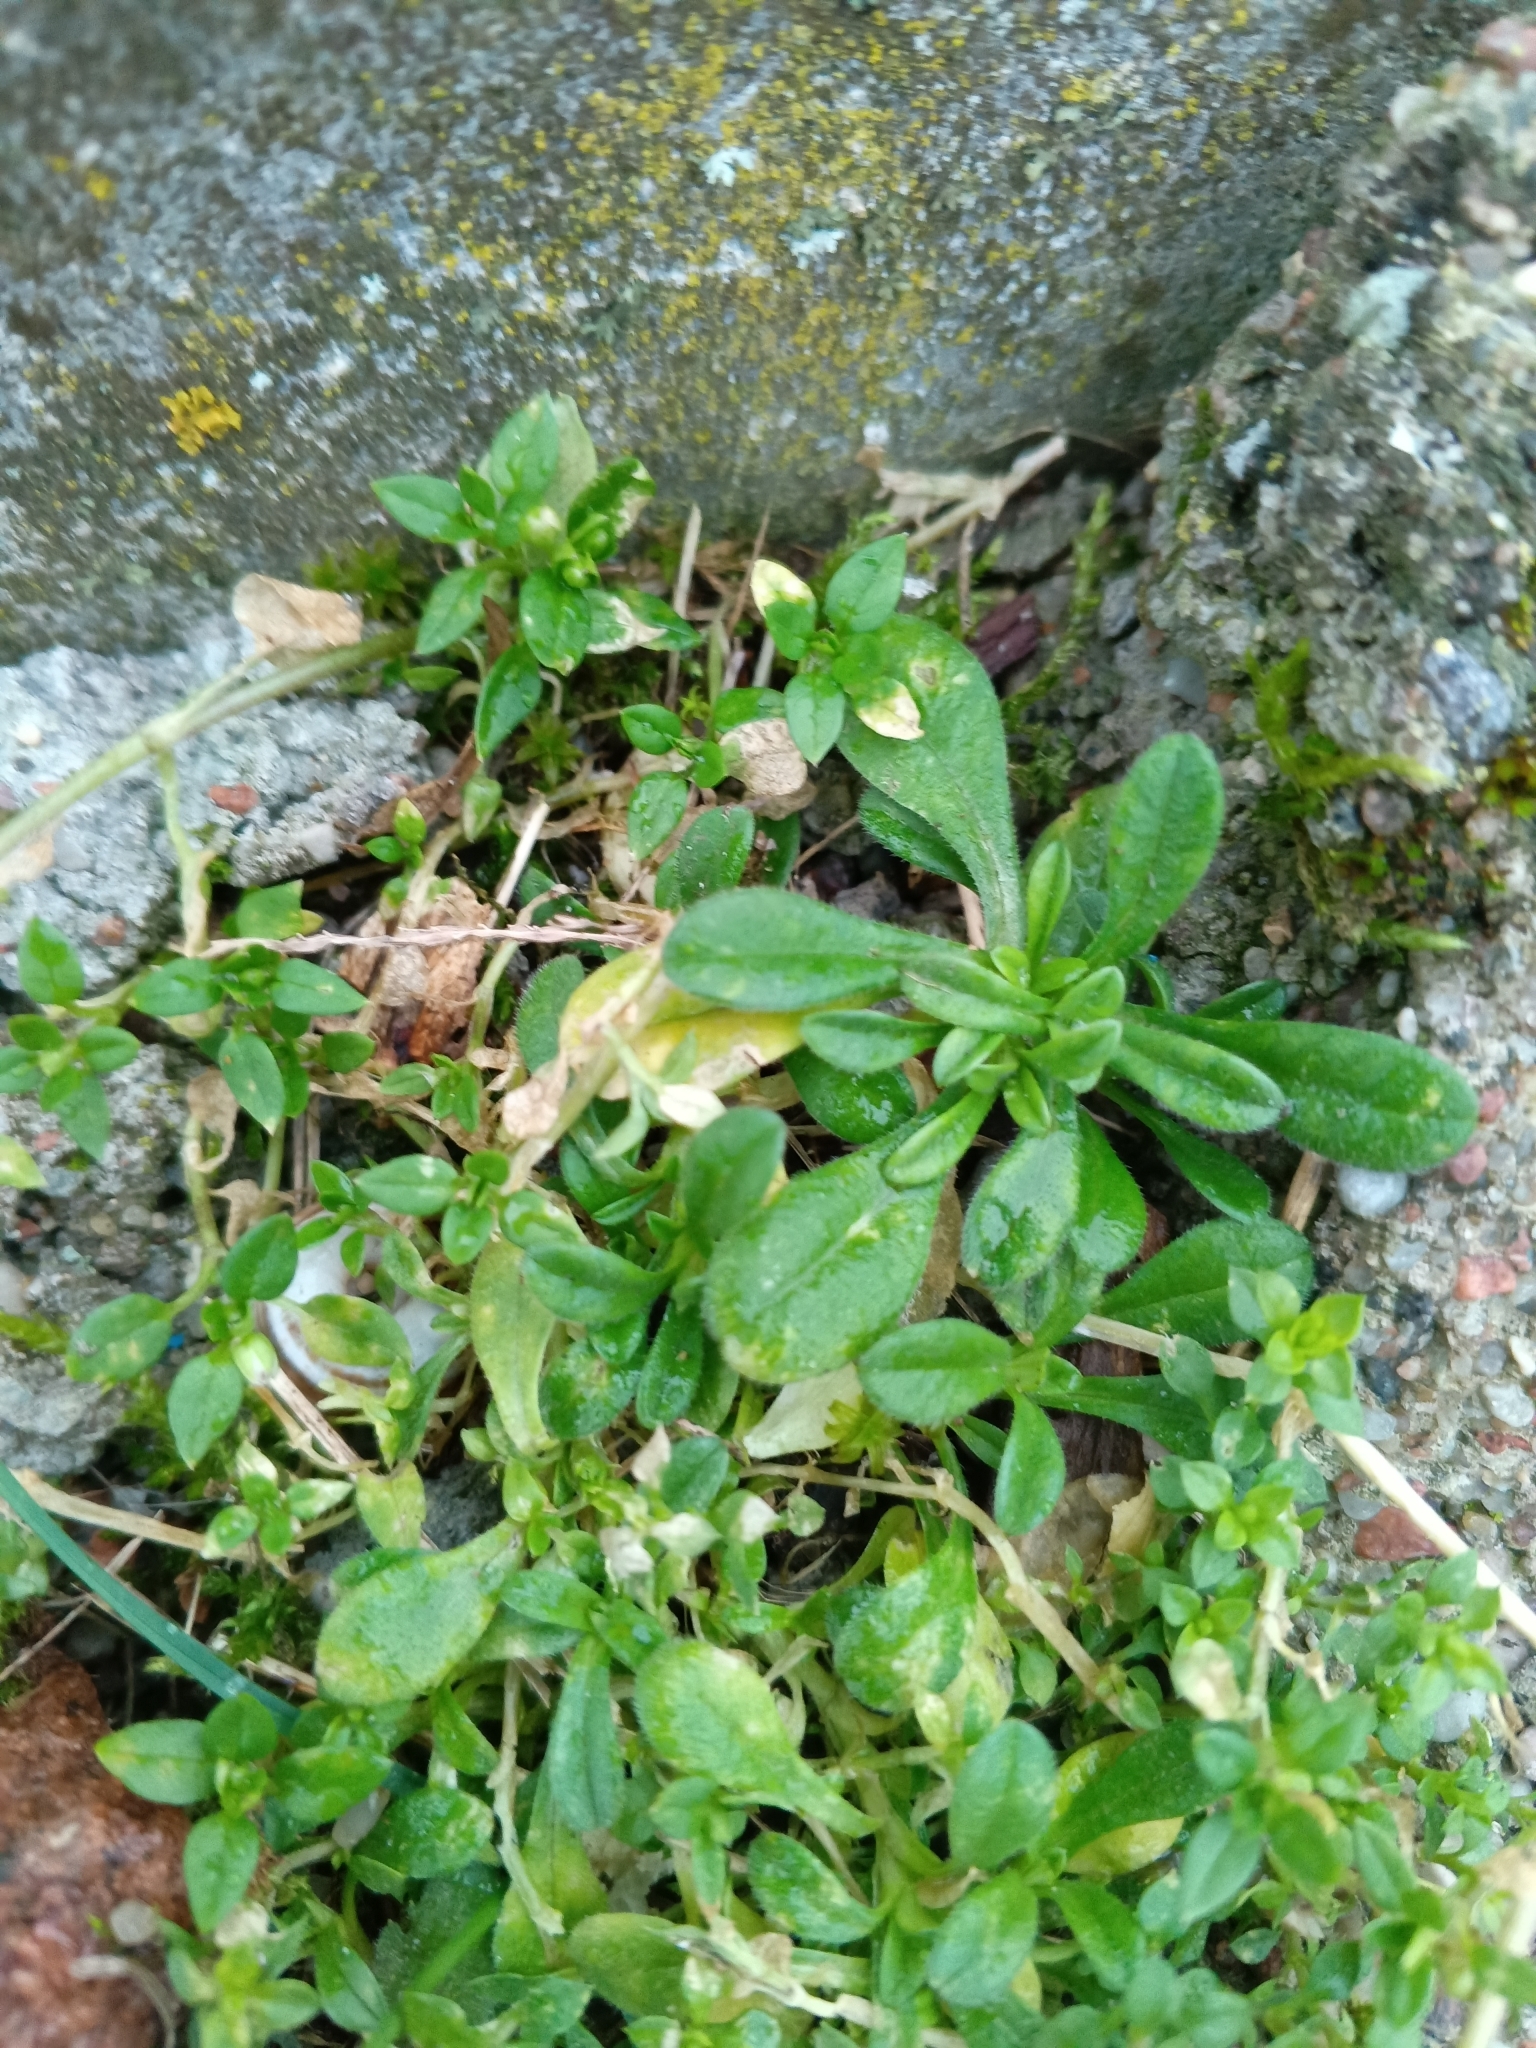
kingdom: Plantae
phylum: Tracheophyta
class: Magnoliopsida
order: Caryophyllales
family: Caryophyllaceae
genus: Cerastium
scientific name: Cerastium holosteoides
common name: Big chickweed
